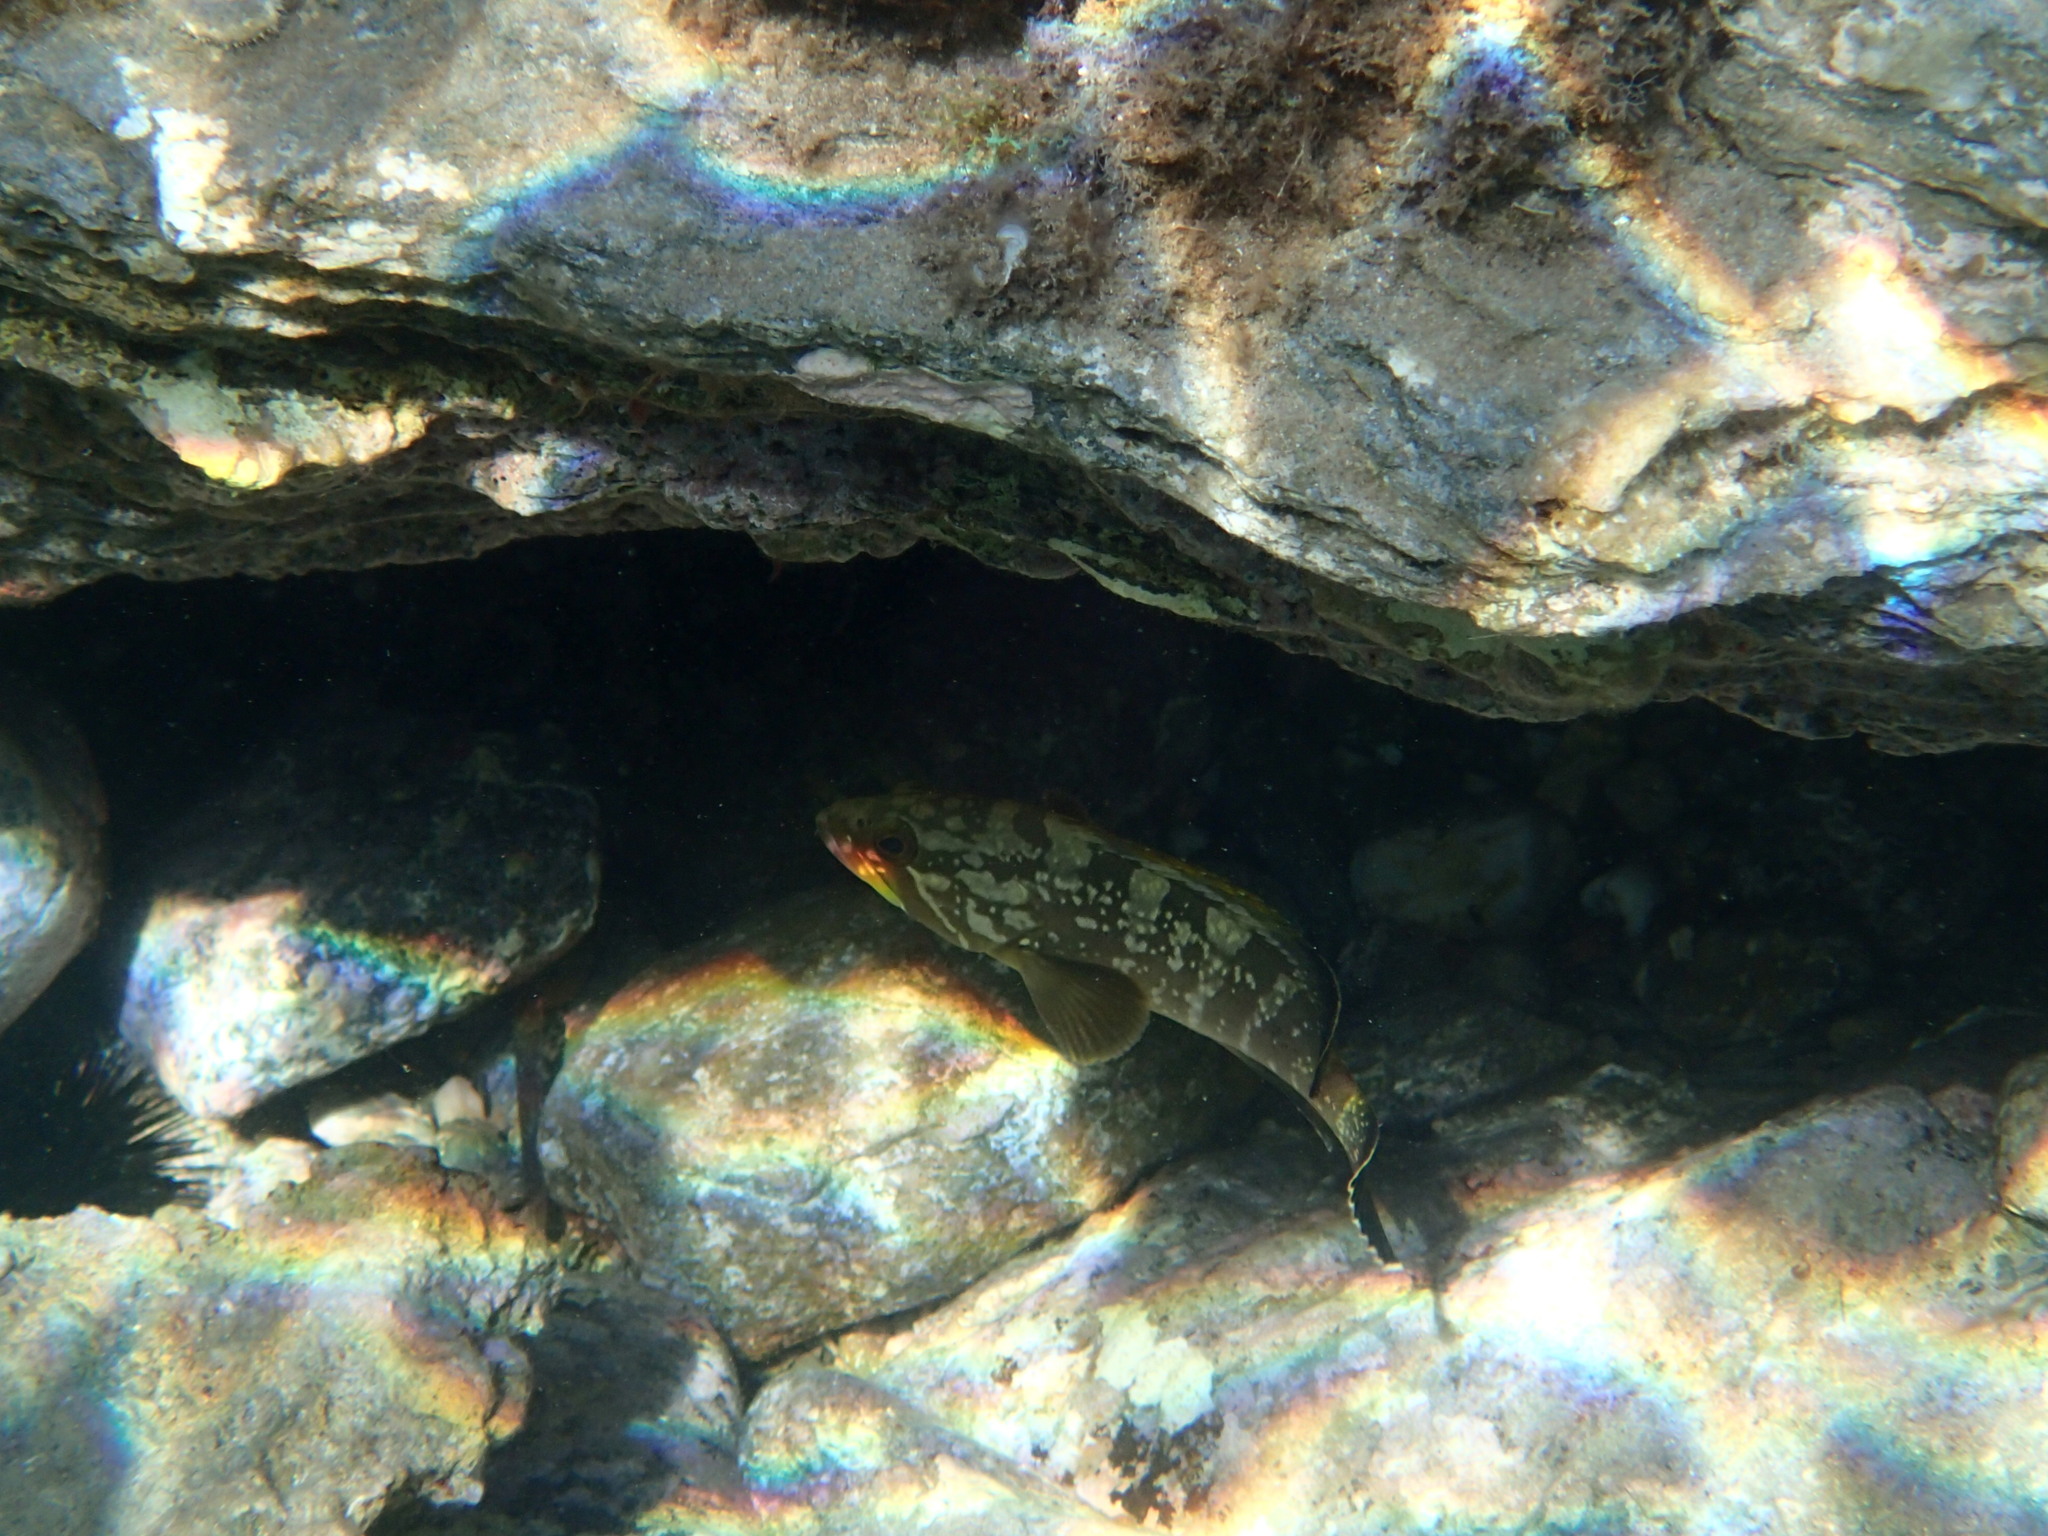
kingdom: Animalia
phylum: Chordata
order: Perciformes
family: Serranidae
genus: Epinephelus
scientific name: Epinephelus marginatus
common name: Dusky grouper
